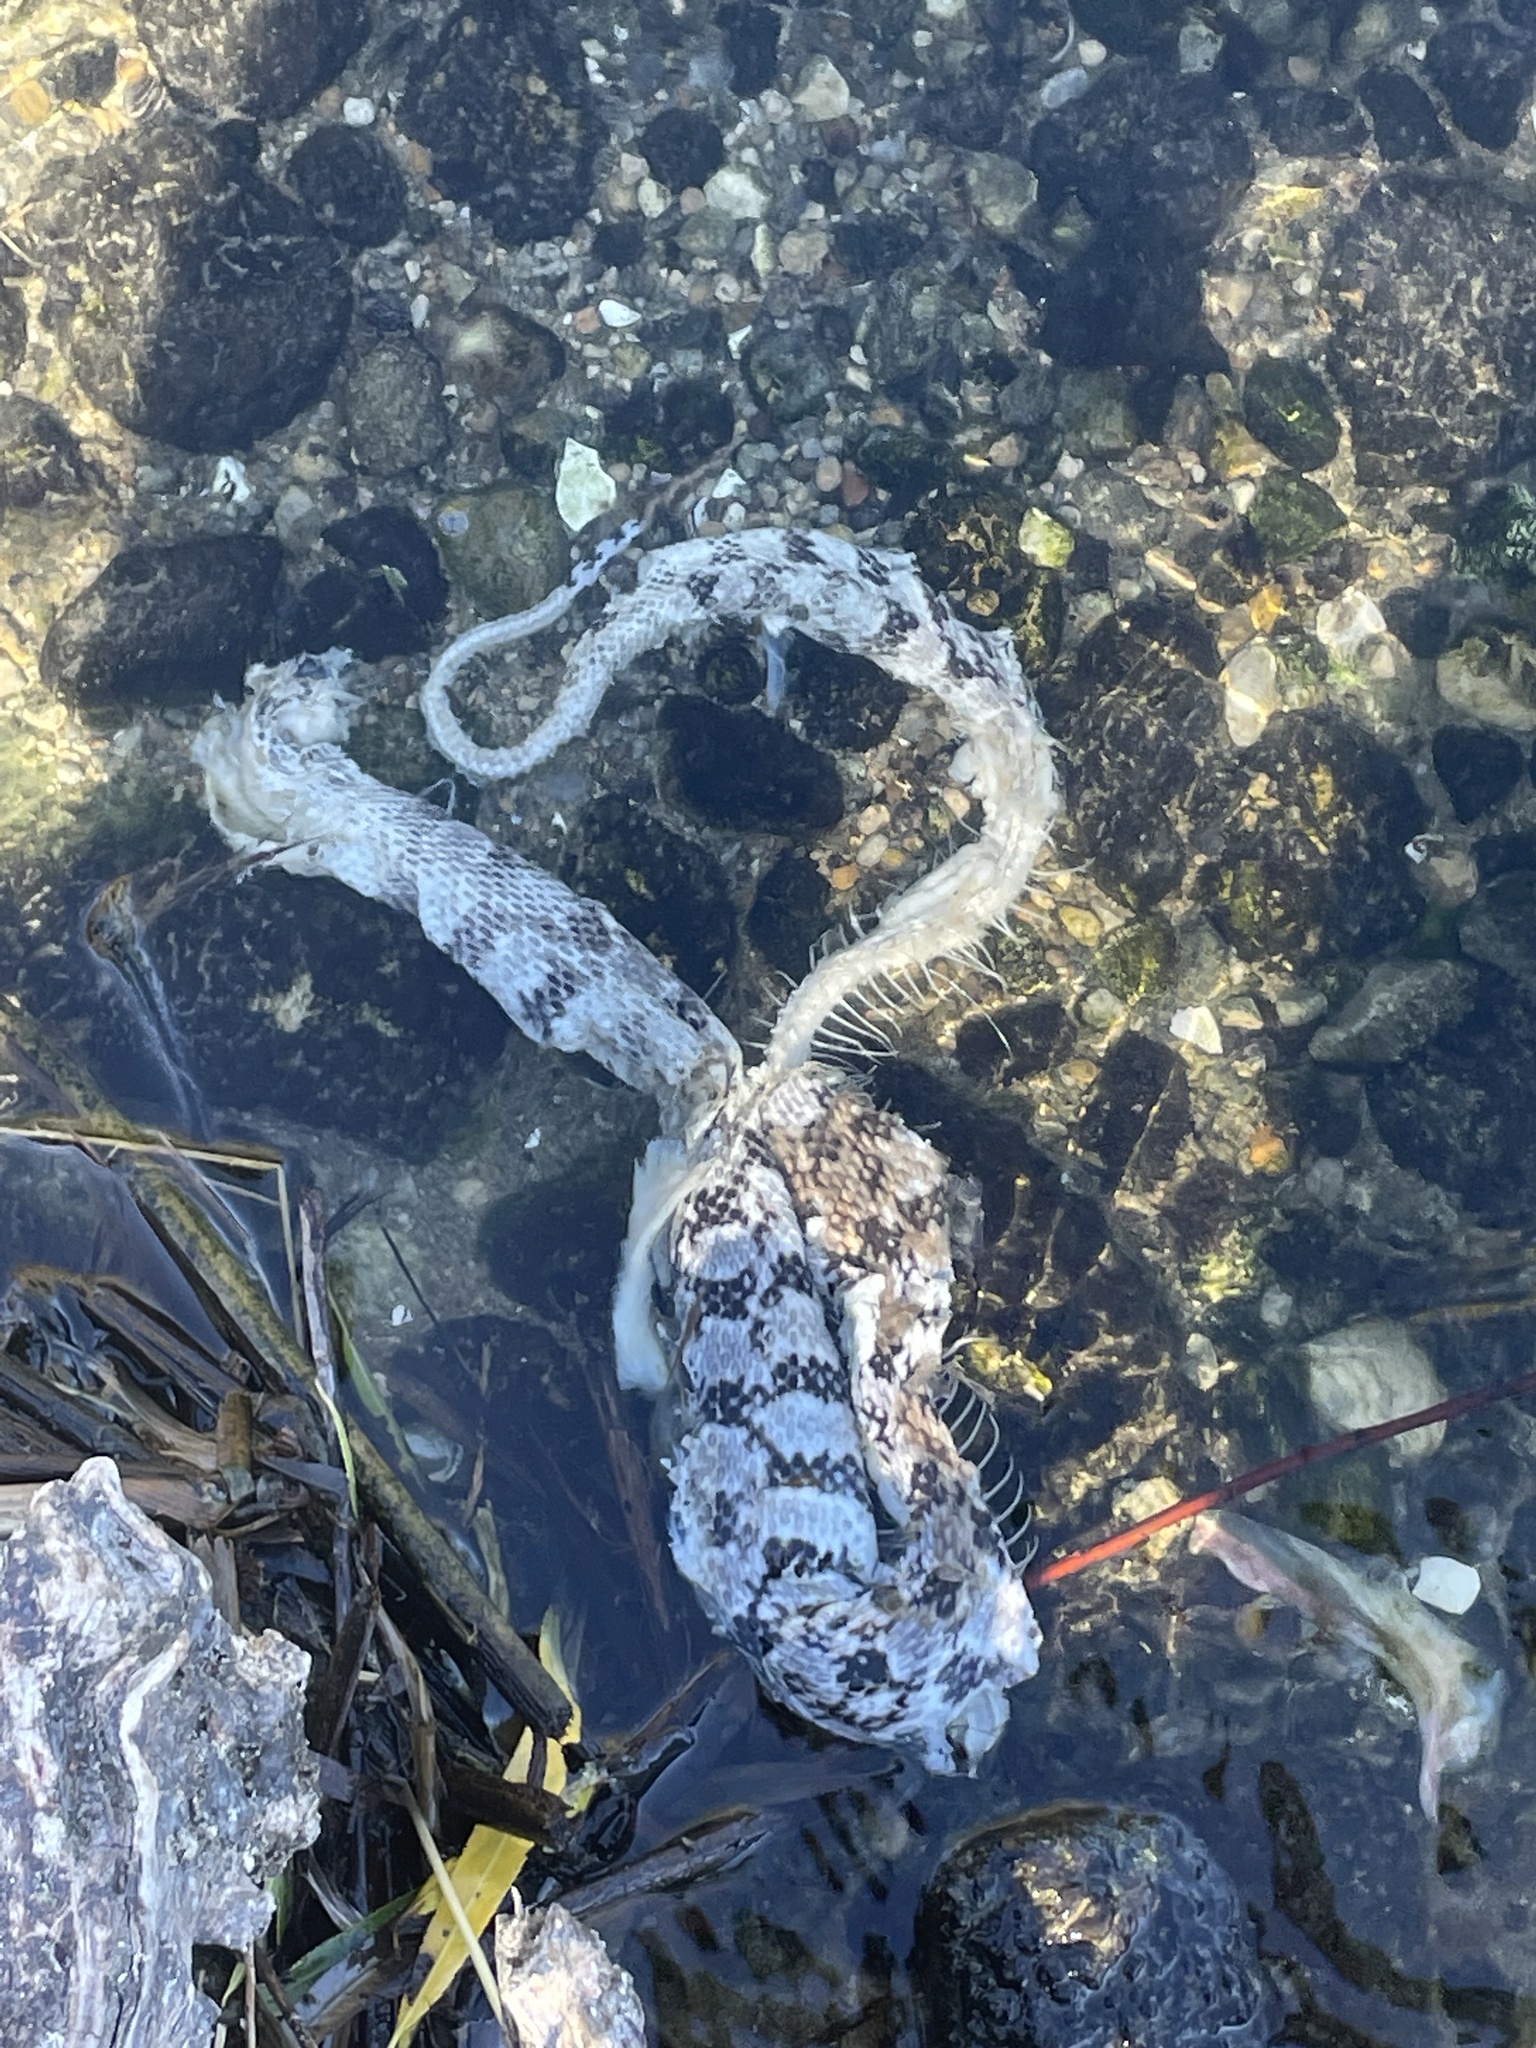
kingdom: Animalia
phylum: Chordata
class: Squamata
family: Colubridae
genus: Nerodia
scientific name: Nerodia rhombifer
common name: Diamondback water snake
